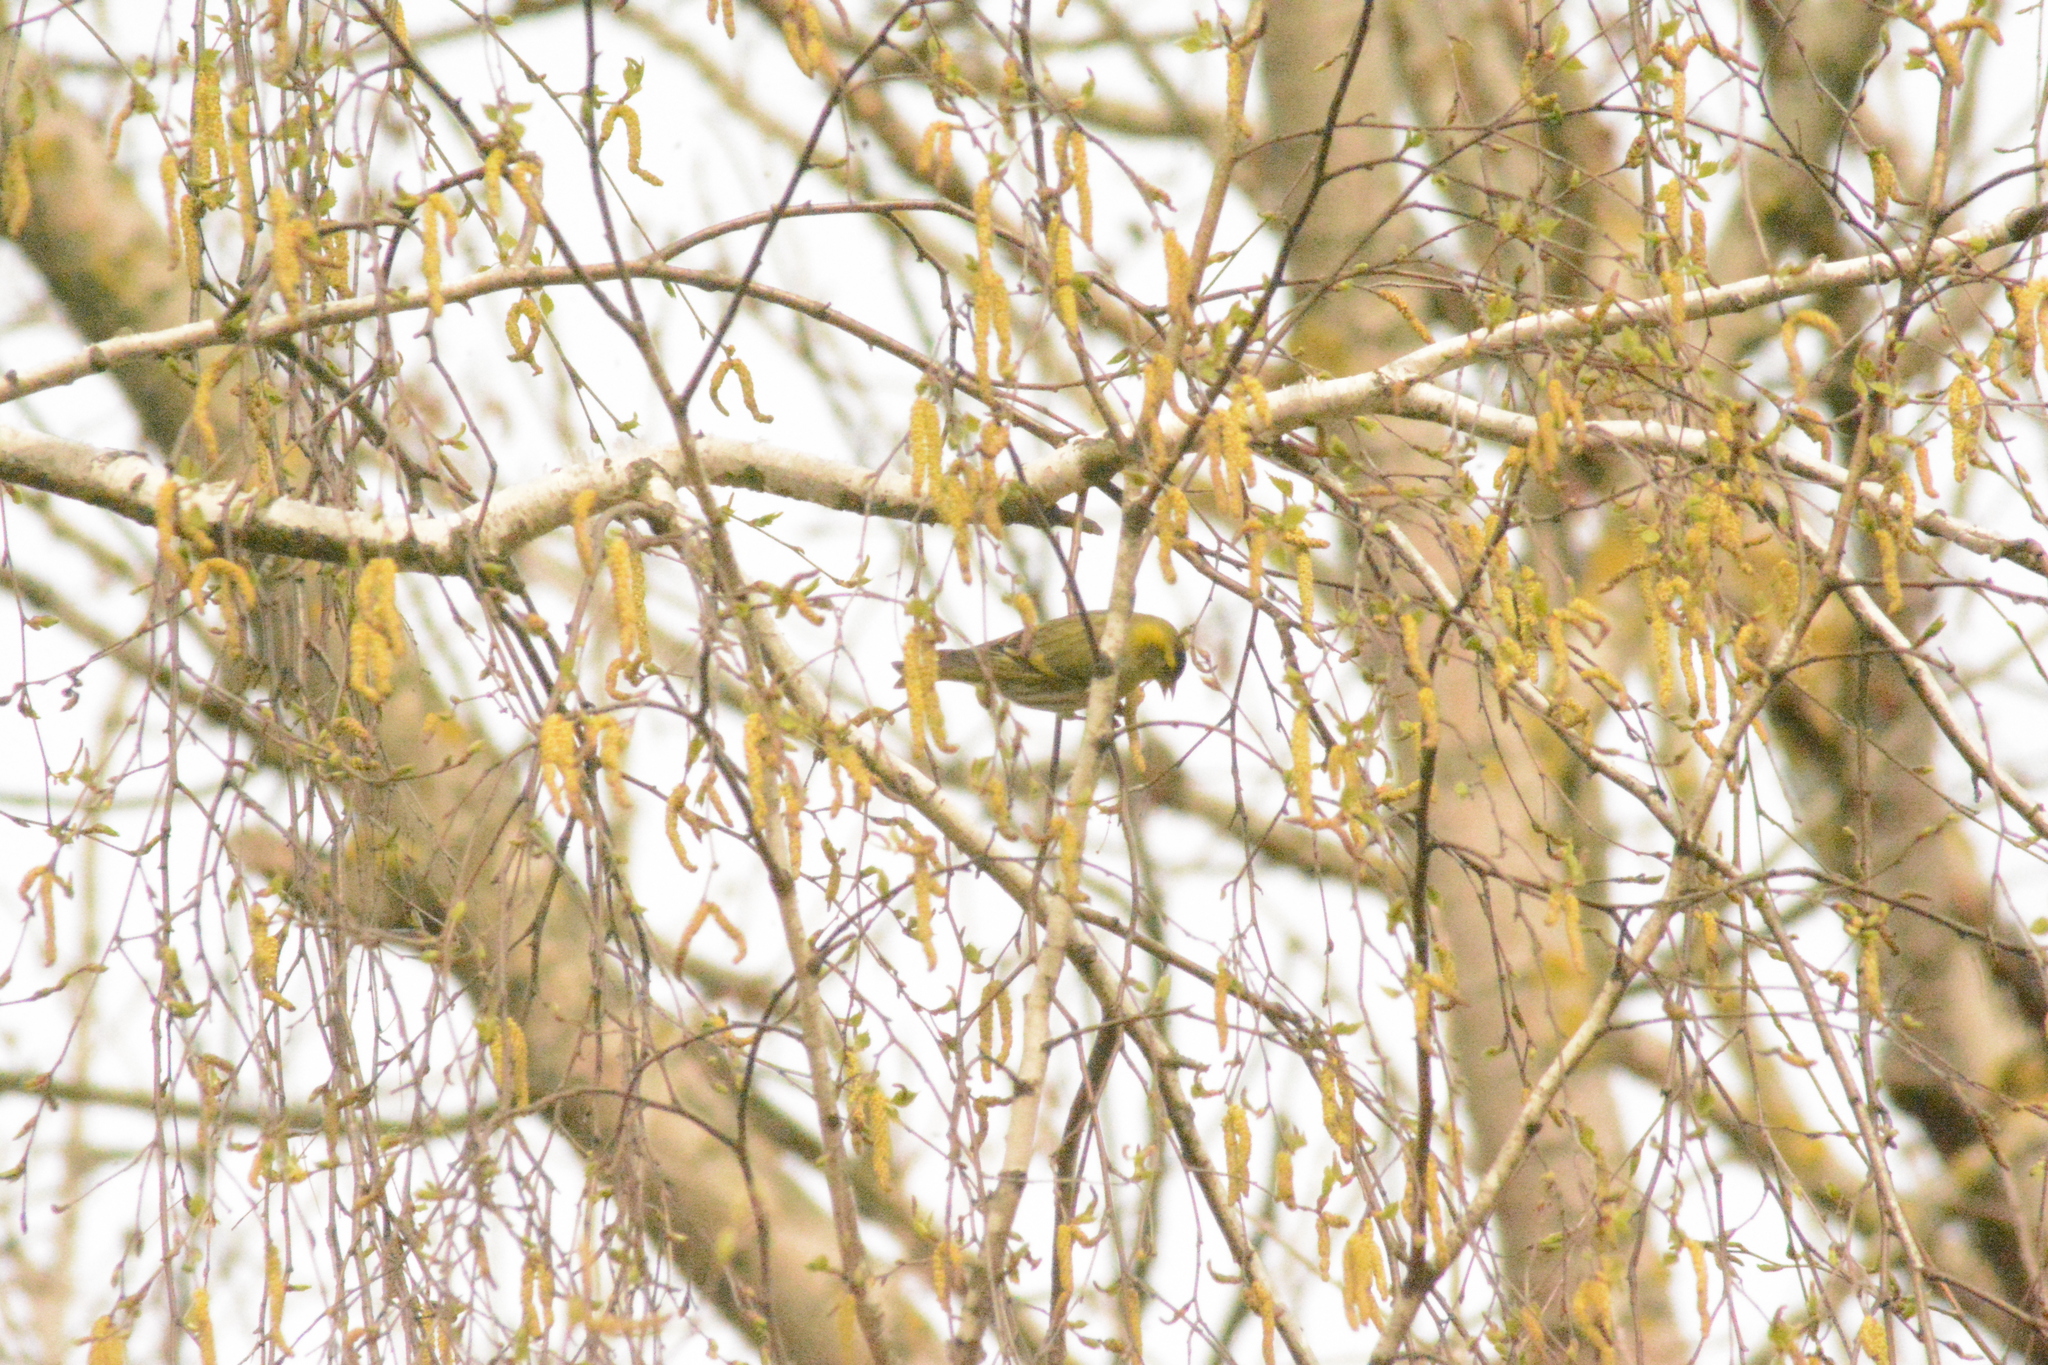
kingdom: Animalia
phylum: Chordata
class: Aves
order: Passeriformes
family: Fringillidae
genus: Spinus
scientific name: Spinus spinus
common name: Eurasian siskin
